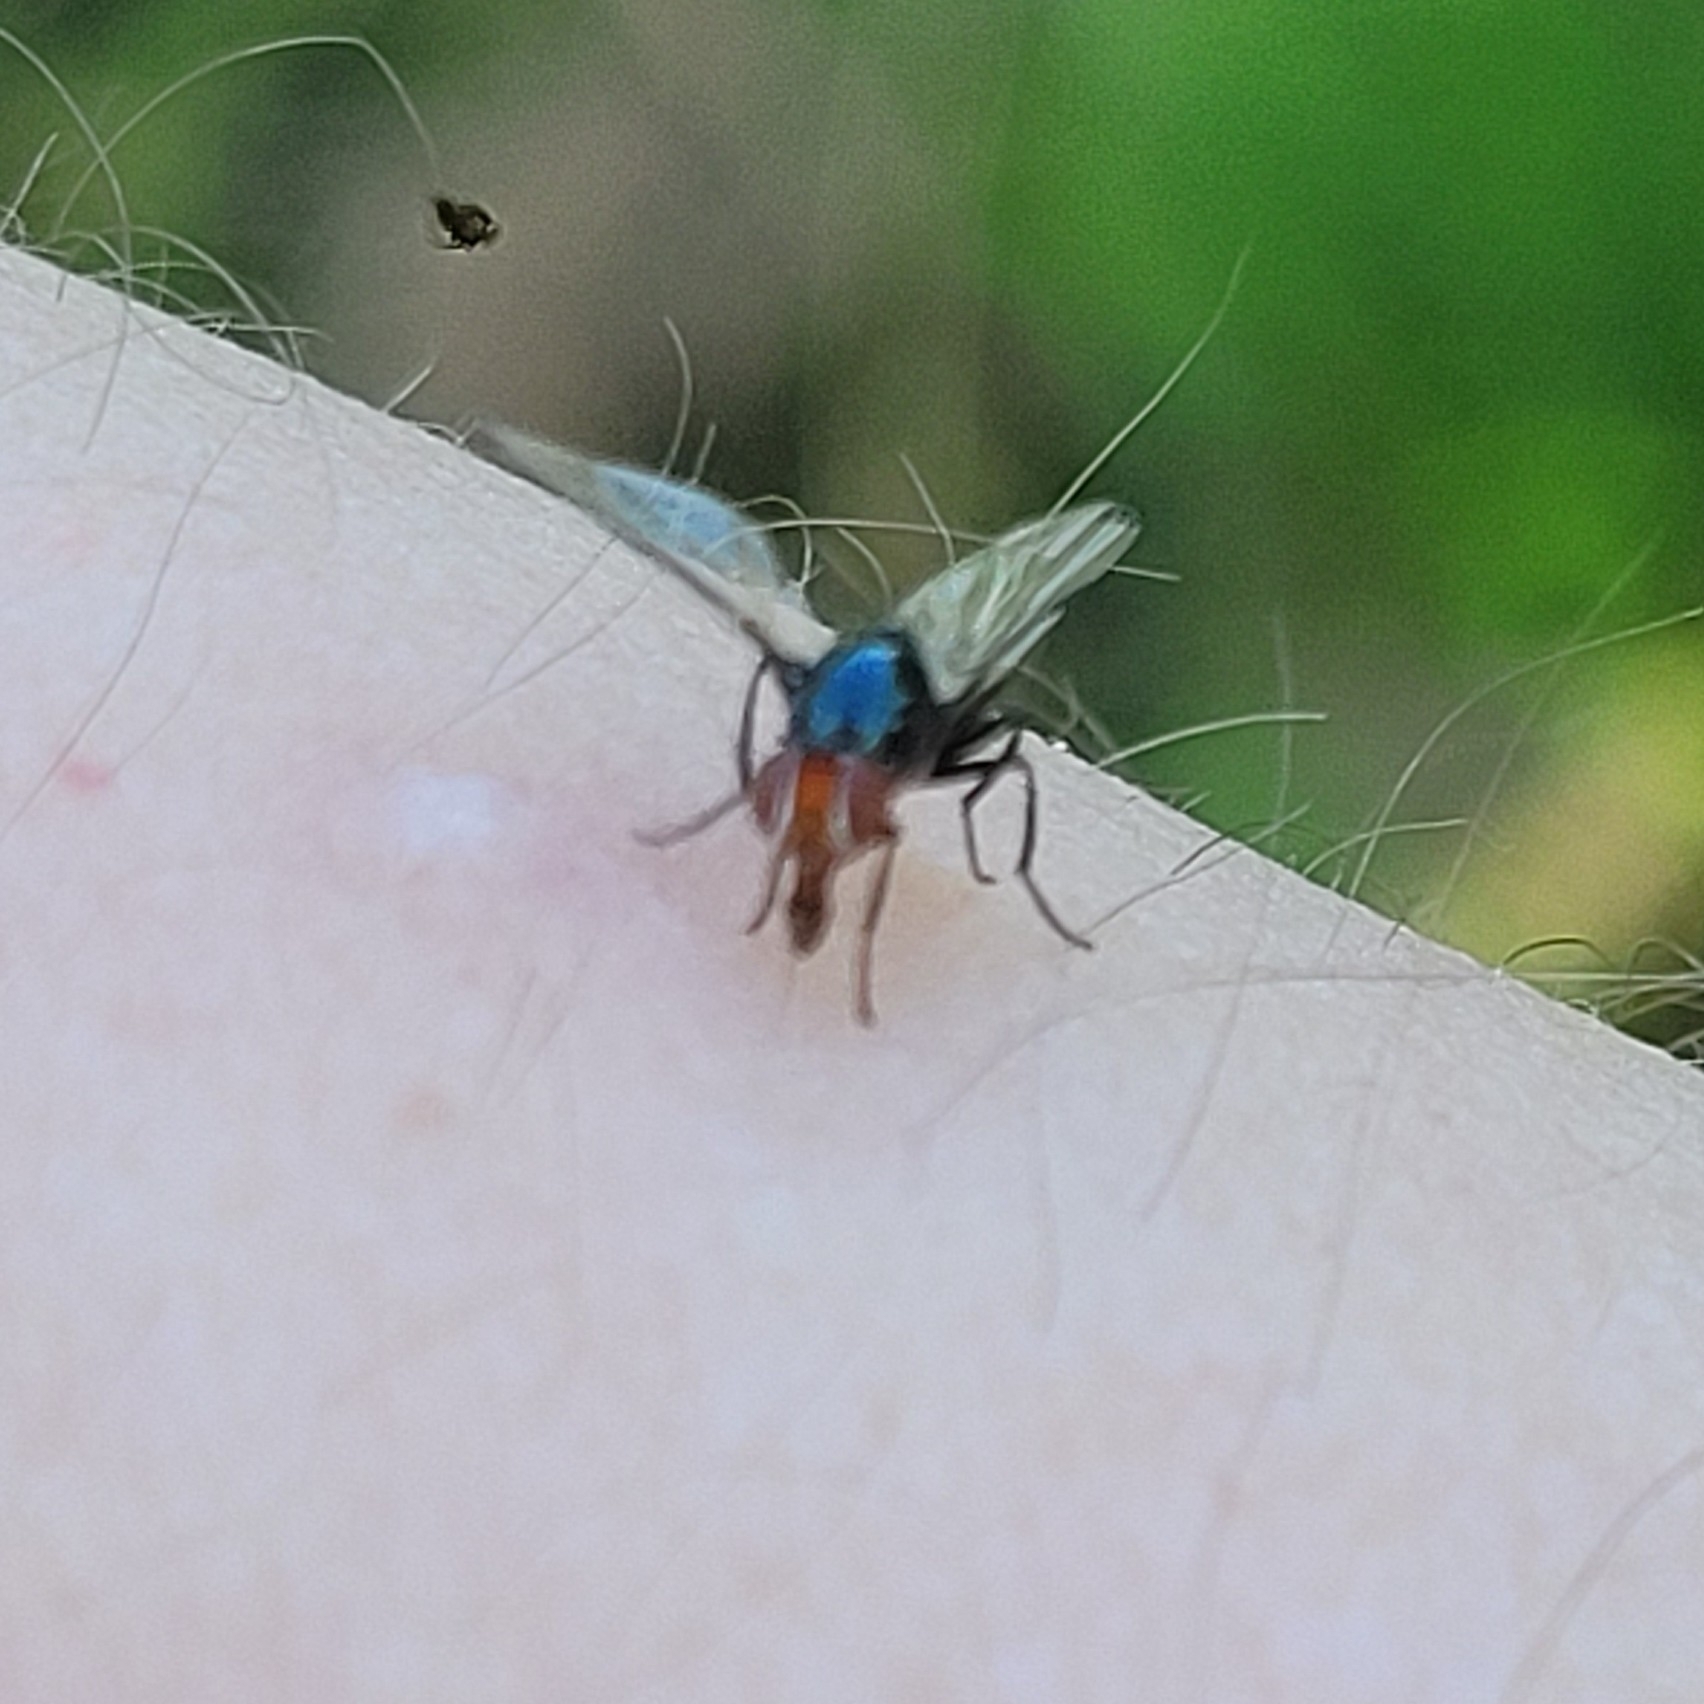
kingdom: Animalia
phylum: Arthropoda
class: Insecta
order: Diptera
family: Ulidiidae
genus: Seioptera
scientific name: Seioptera vibrans
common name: Dark-tipped wingwaver
